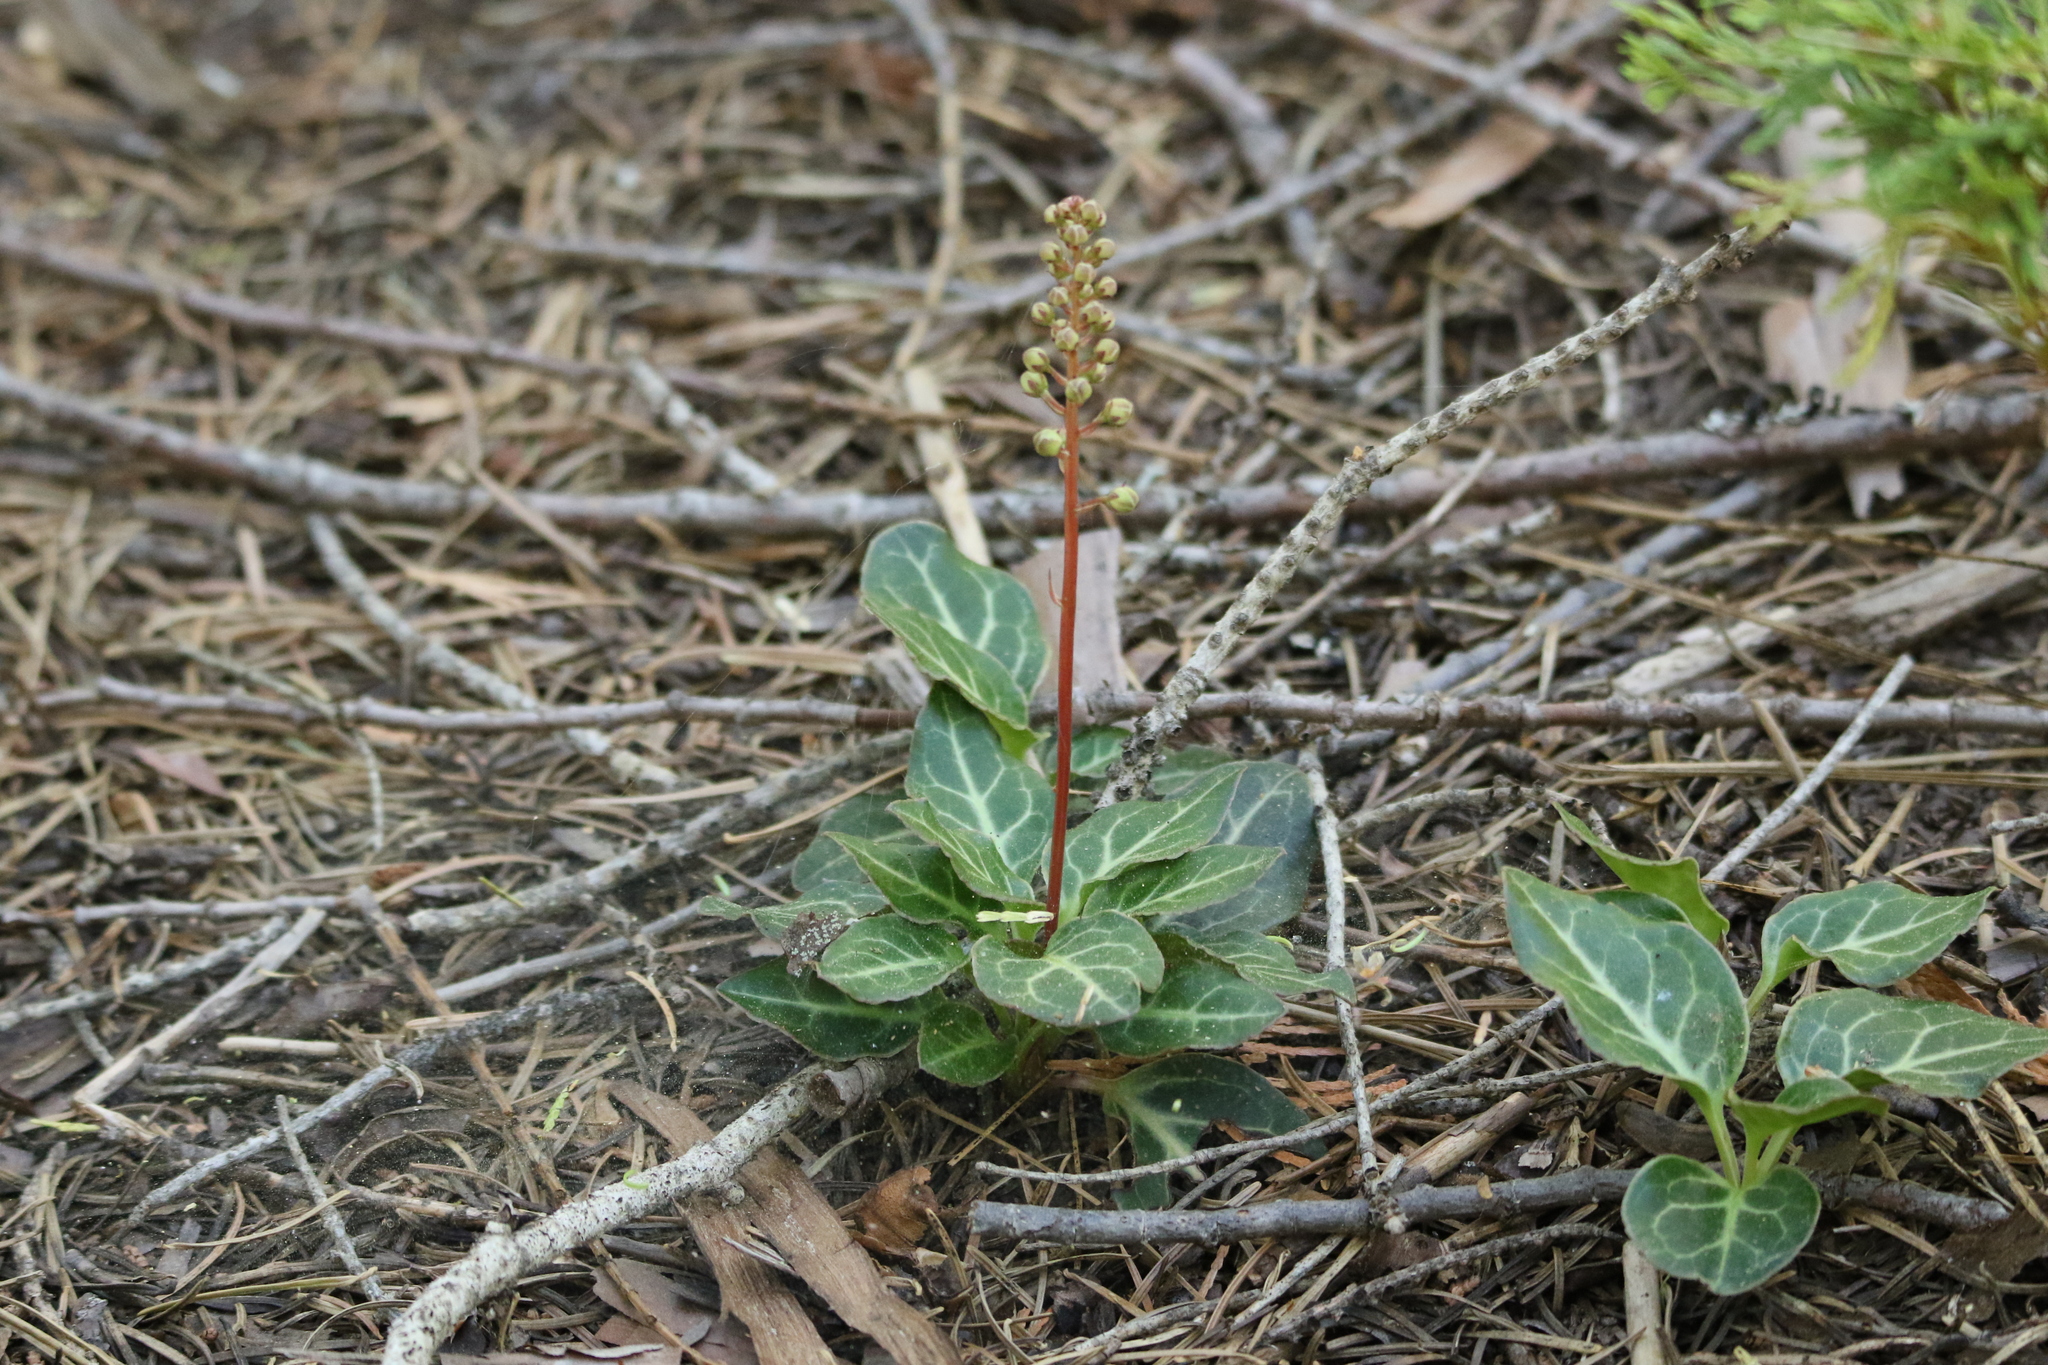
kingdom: Plantae
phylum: Tracheophyta
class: Magnoliopsida
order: Ericales
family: Ericaceae
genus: Pyrola
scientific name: Pyrola picta
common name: White-vein wintergreen
